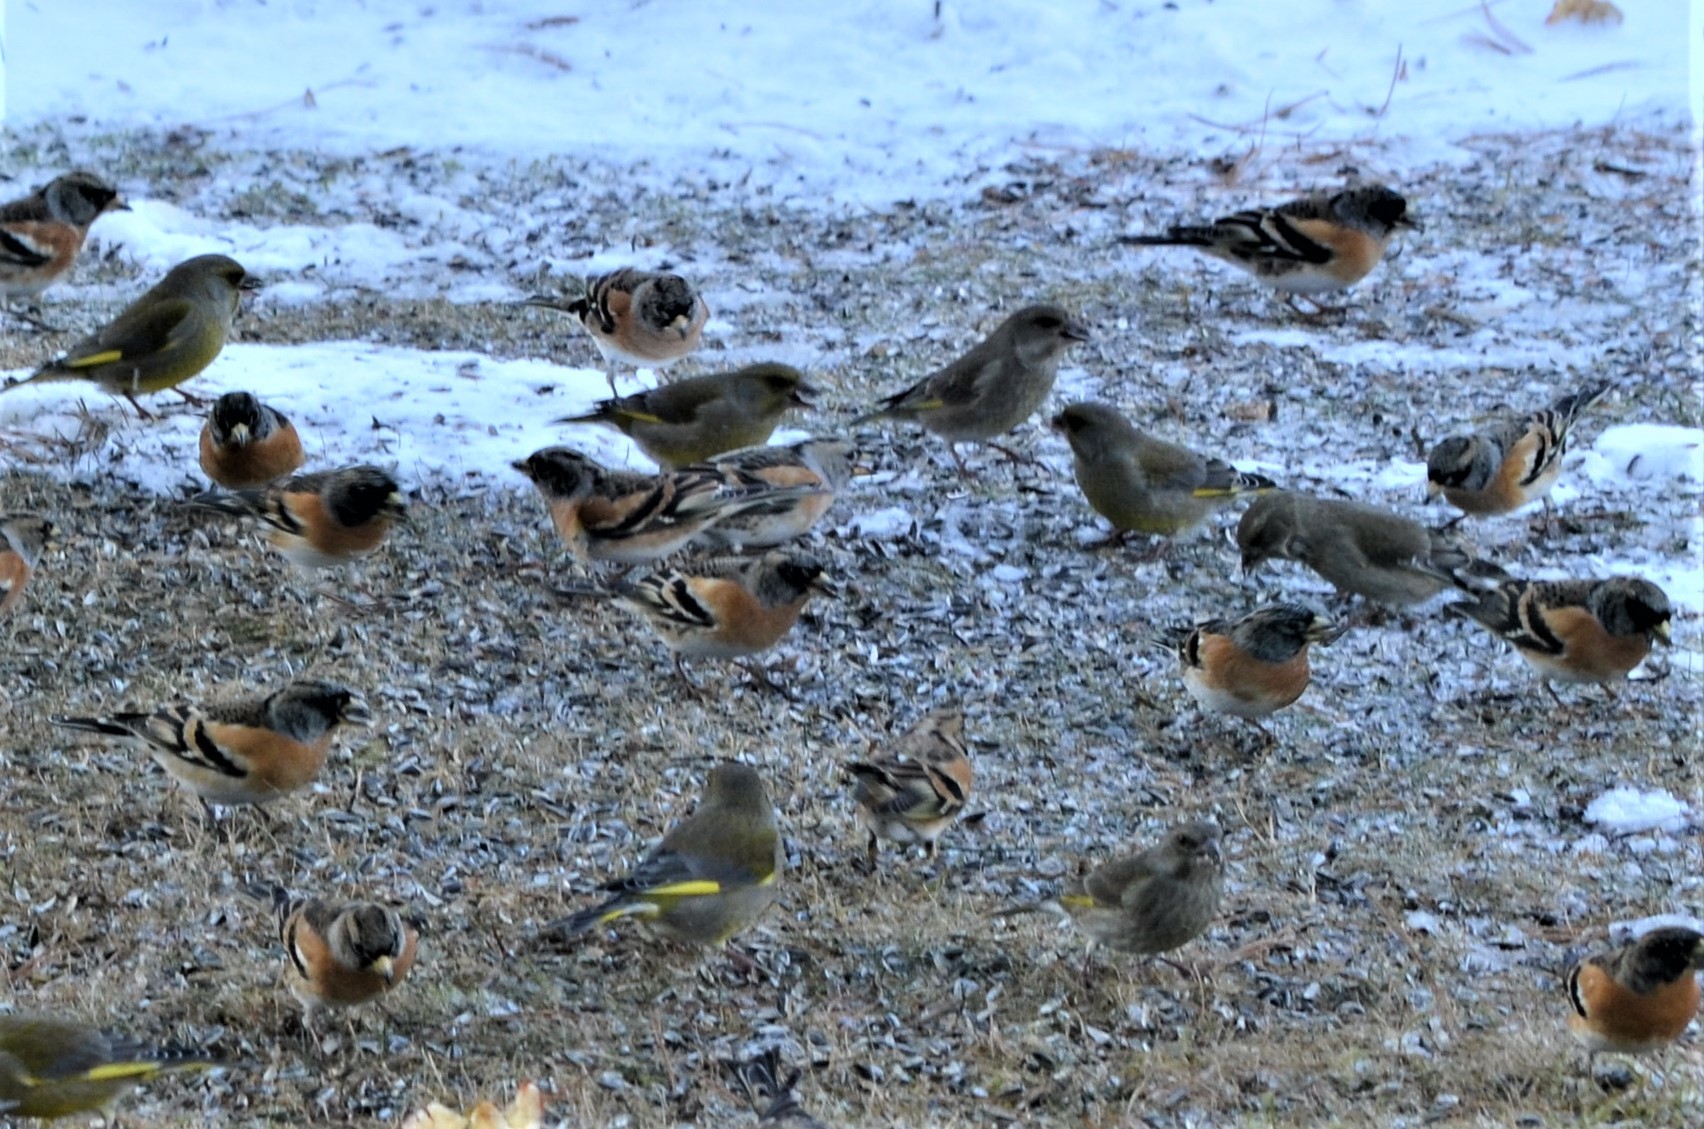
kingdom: Animalia
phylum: Chordata
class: Aves
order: Passeriformes
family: Fringillidae
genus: Fringilla
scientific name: Fringilla montifringilla
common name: Brambling
